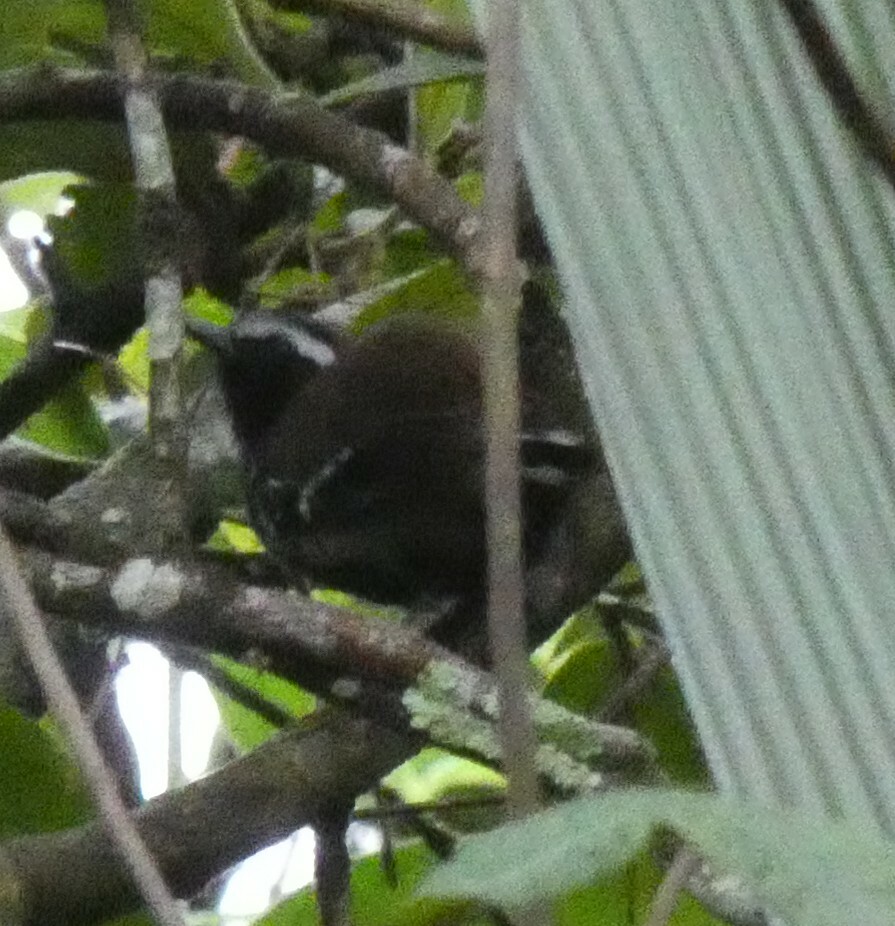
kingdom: Animalia
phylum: Chordata
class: Aves
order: Passeriformes
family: Thamnophilidae
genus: Formicivora
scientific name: Formicivora serrana
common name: Serra antwren
